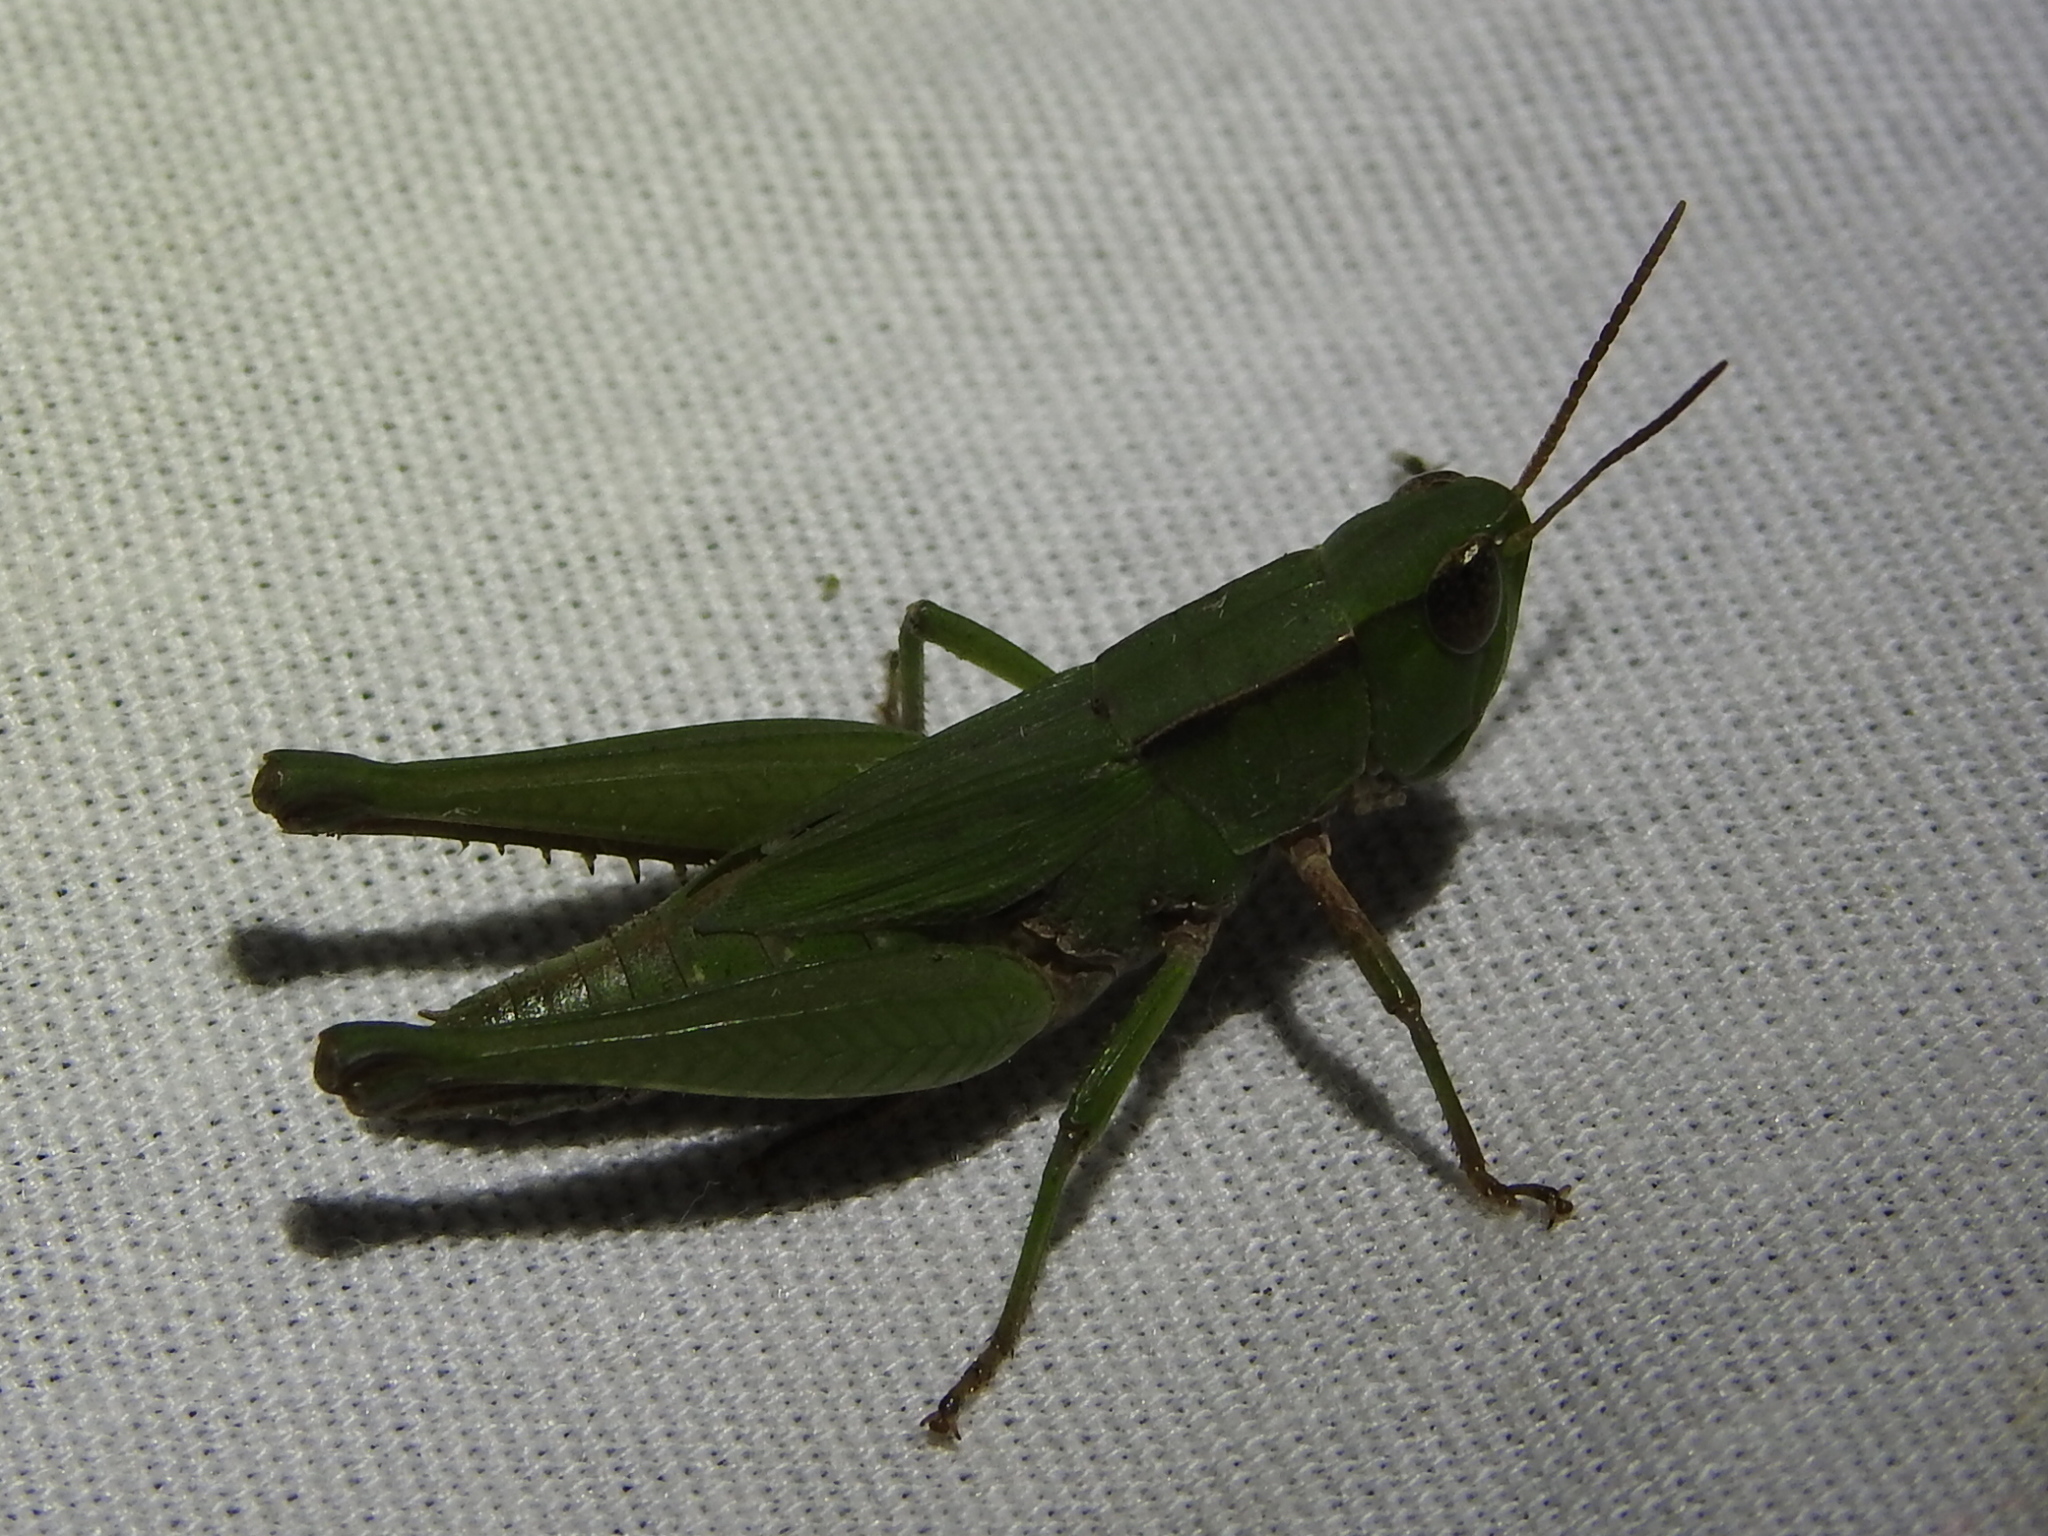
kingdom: Animalia
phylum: Arthropoda
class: Insecta
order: Orthoptera
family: Acrididae
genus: Dichromorpha
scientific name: Dichromorpha viridis
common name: Short-winged green grasshopper
